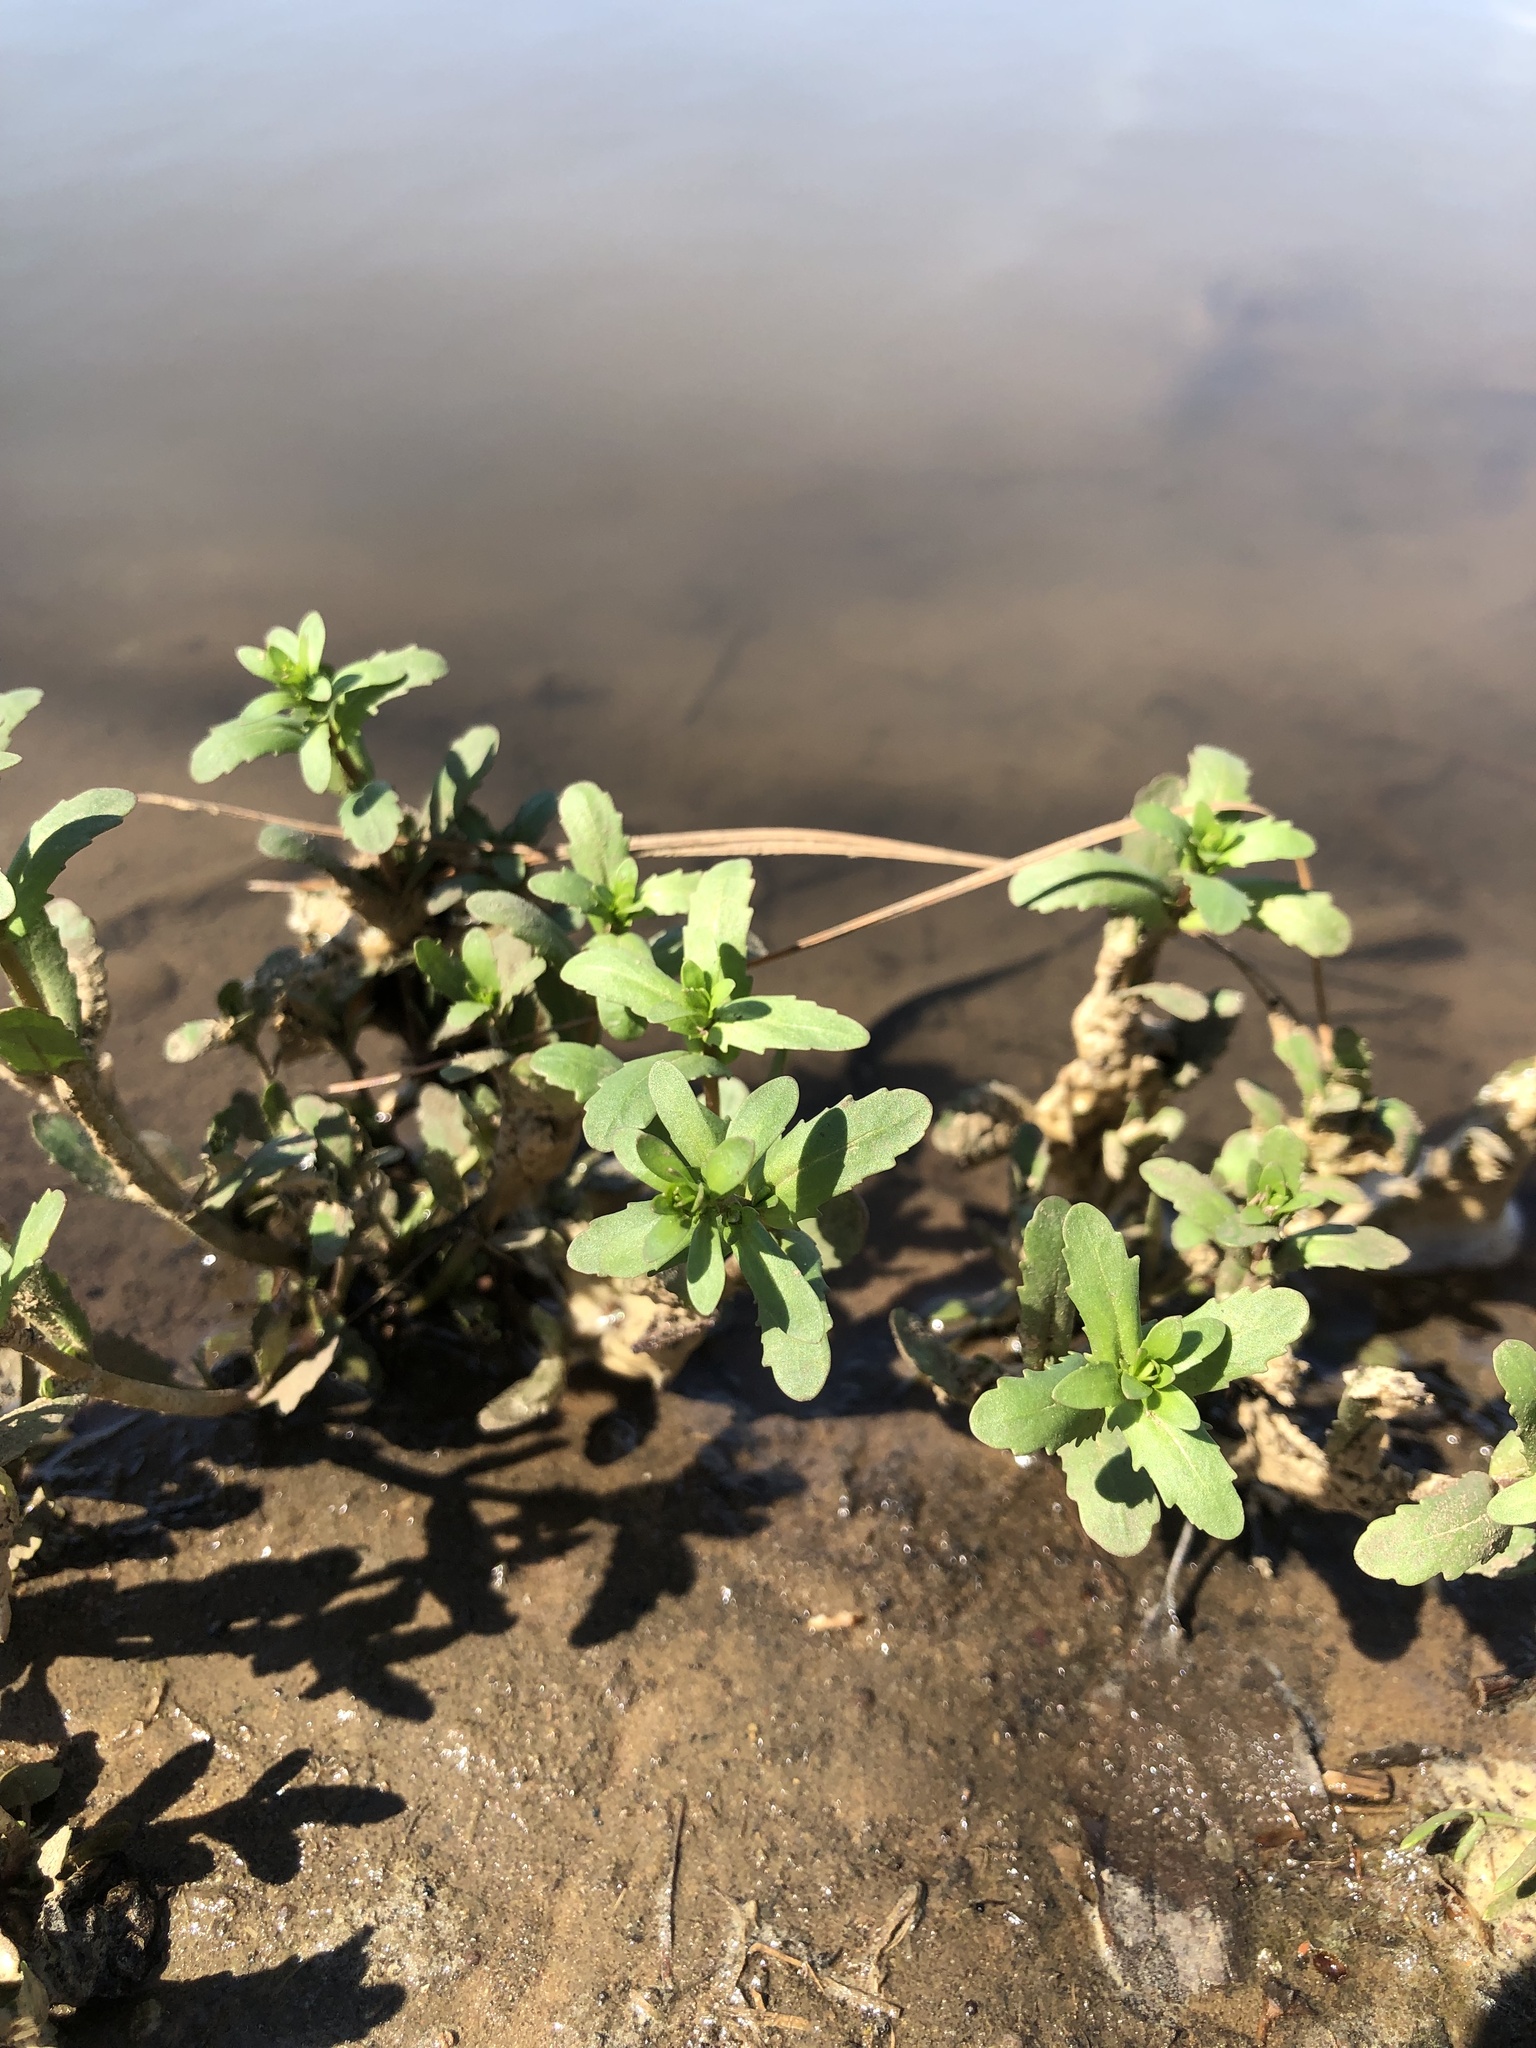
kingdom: Plantae
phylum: Tracheophyta
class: Magnoliopsida
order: Lamiales
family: Plantaginaceae
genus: Veronica
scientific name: Veronica peregrina
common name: Neckweed
